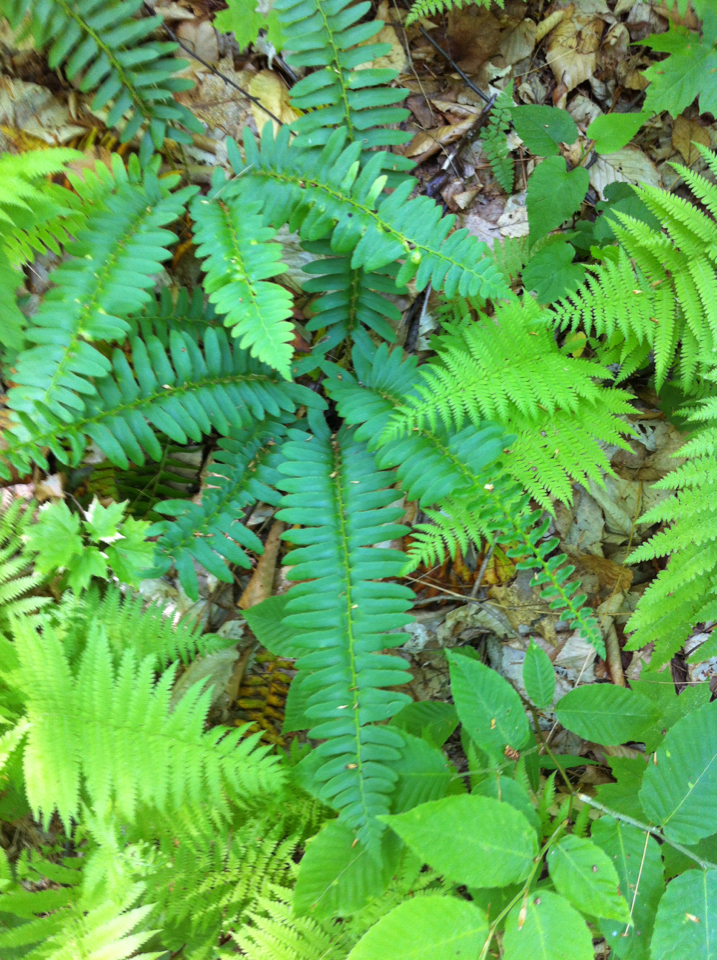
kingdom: Plantae
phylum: Tracheophyta
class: Polypodiopsida
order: Polypodiales
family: Dryopteridaceae
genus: Polystichum
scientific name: Polystichum acrostichoides
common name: Christmas fern
